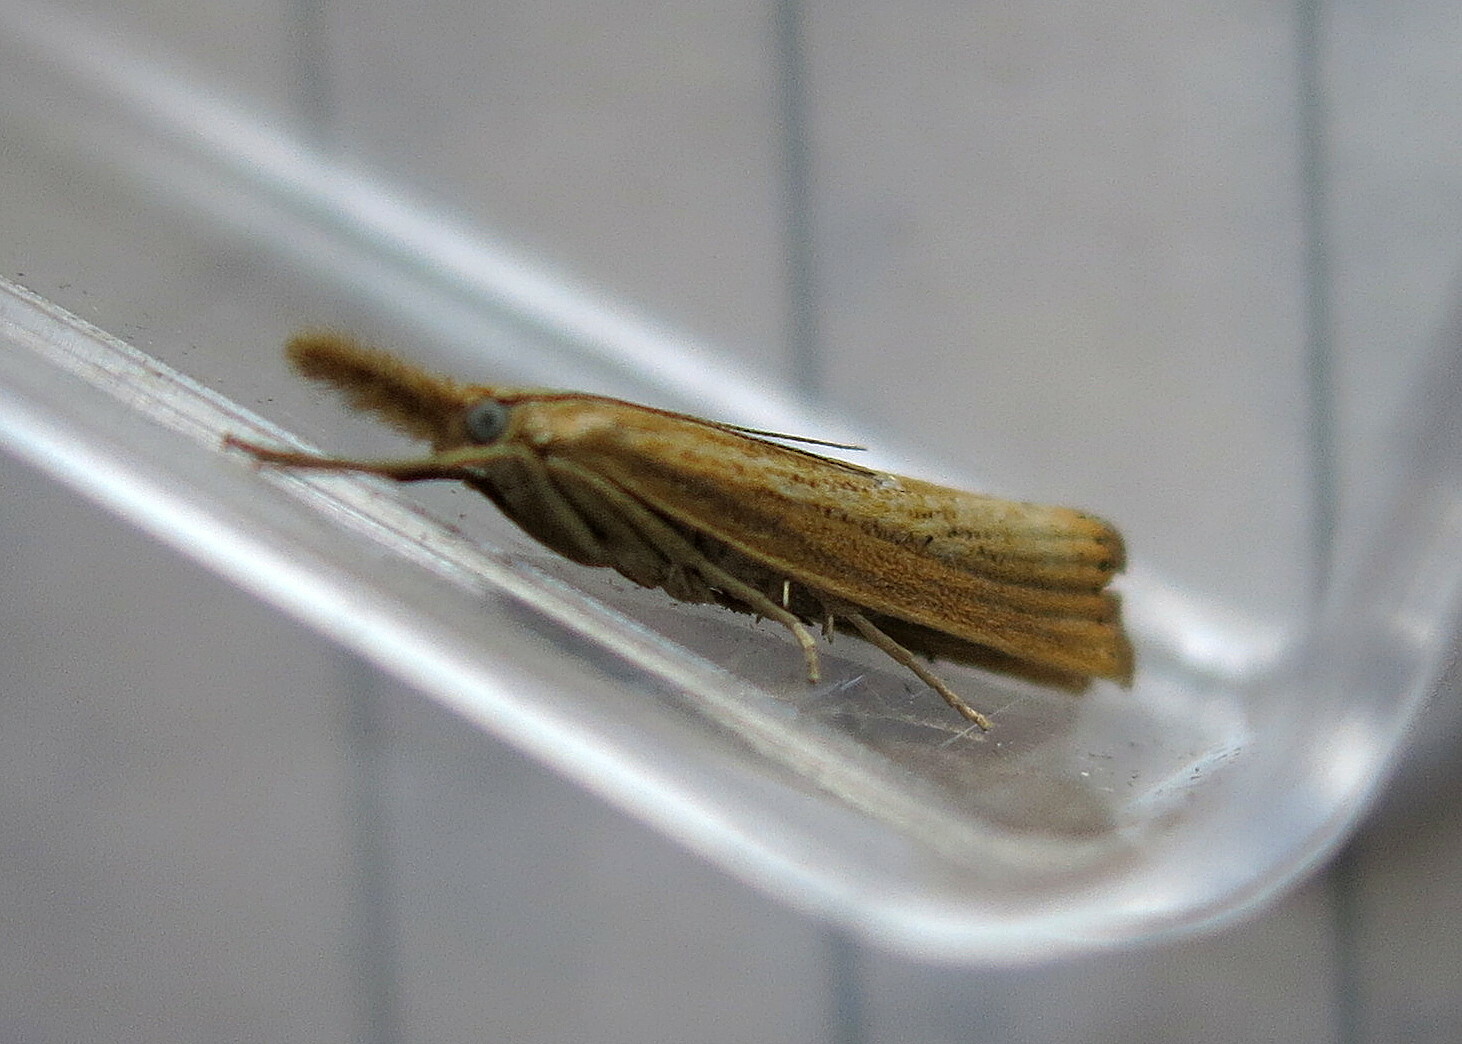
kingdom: Animalia
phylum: Arthropoda
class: Insecta
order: Lepidoptera
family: Crambidae
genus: Agriphila
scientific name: Agriphila straminella
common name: Straw grass-veneer
